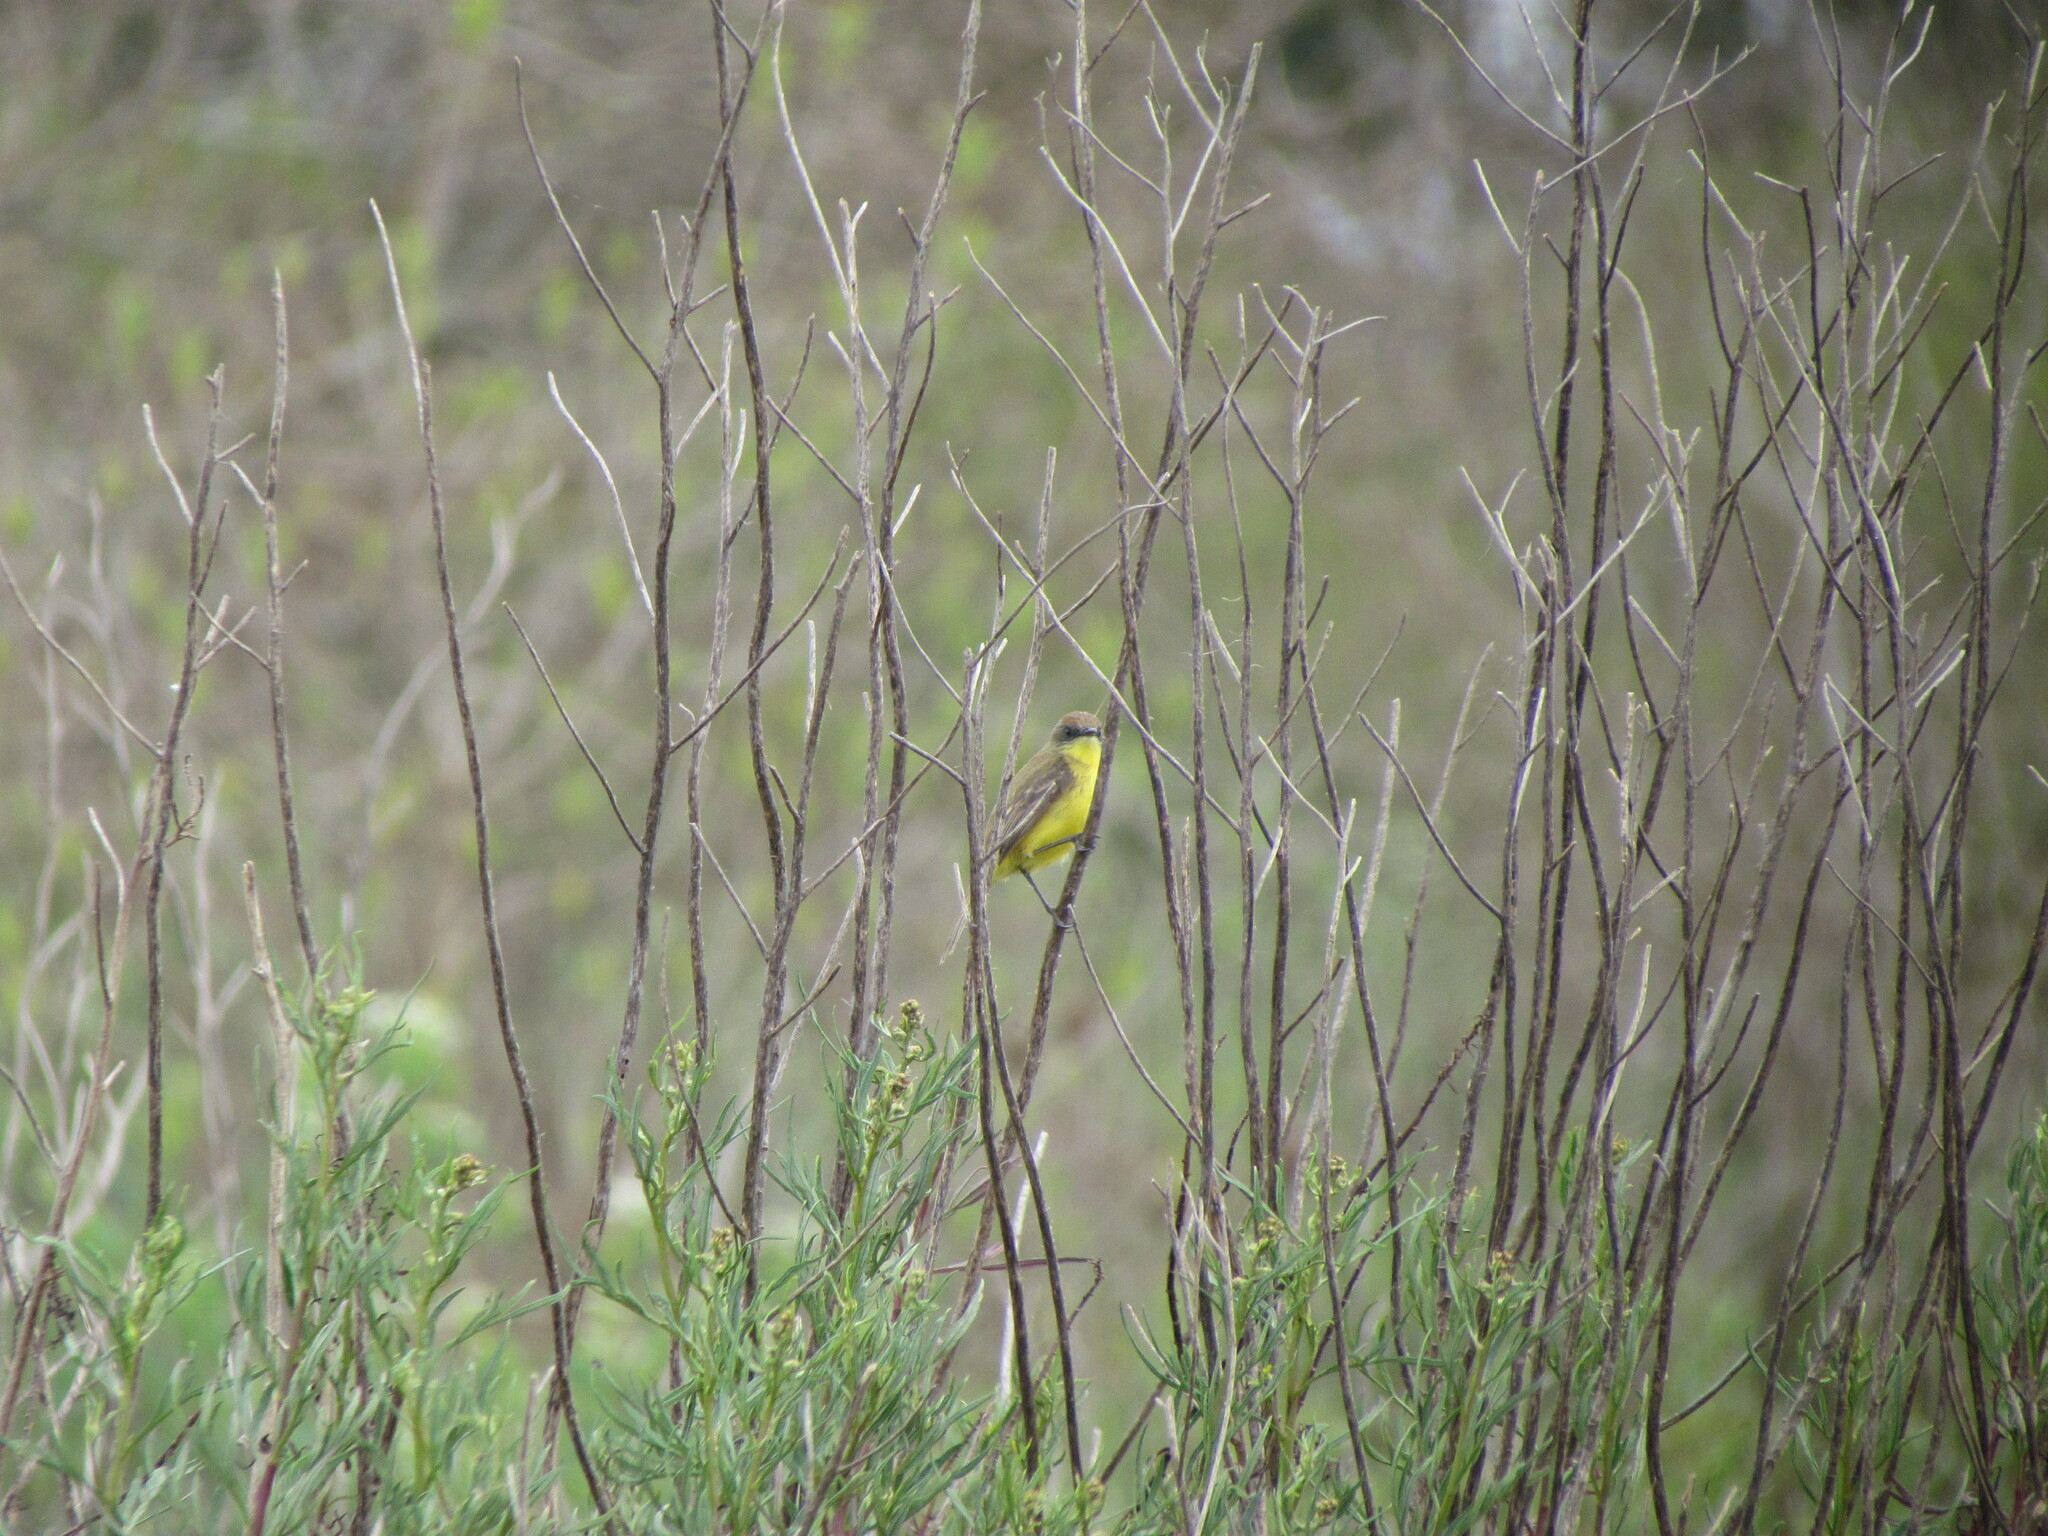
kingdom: Animalia
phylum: Chordata
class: Aves
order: Passeriformes
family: Tyrannidae
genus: Pseudocolopteryx
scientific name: Pseudocolopteryx flaviventris
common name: Warbling doradito
